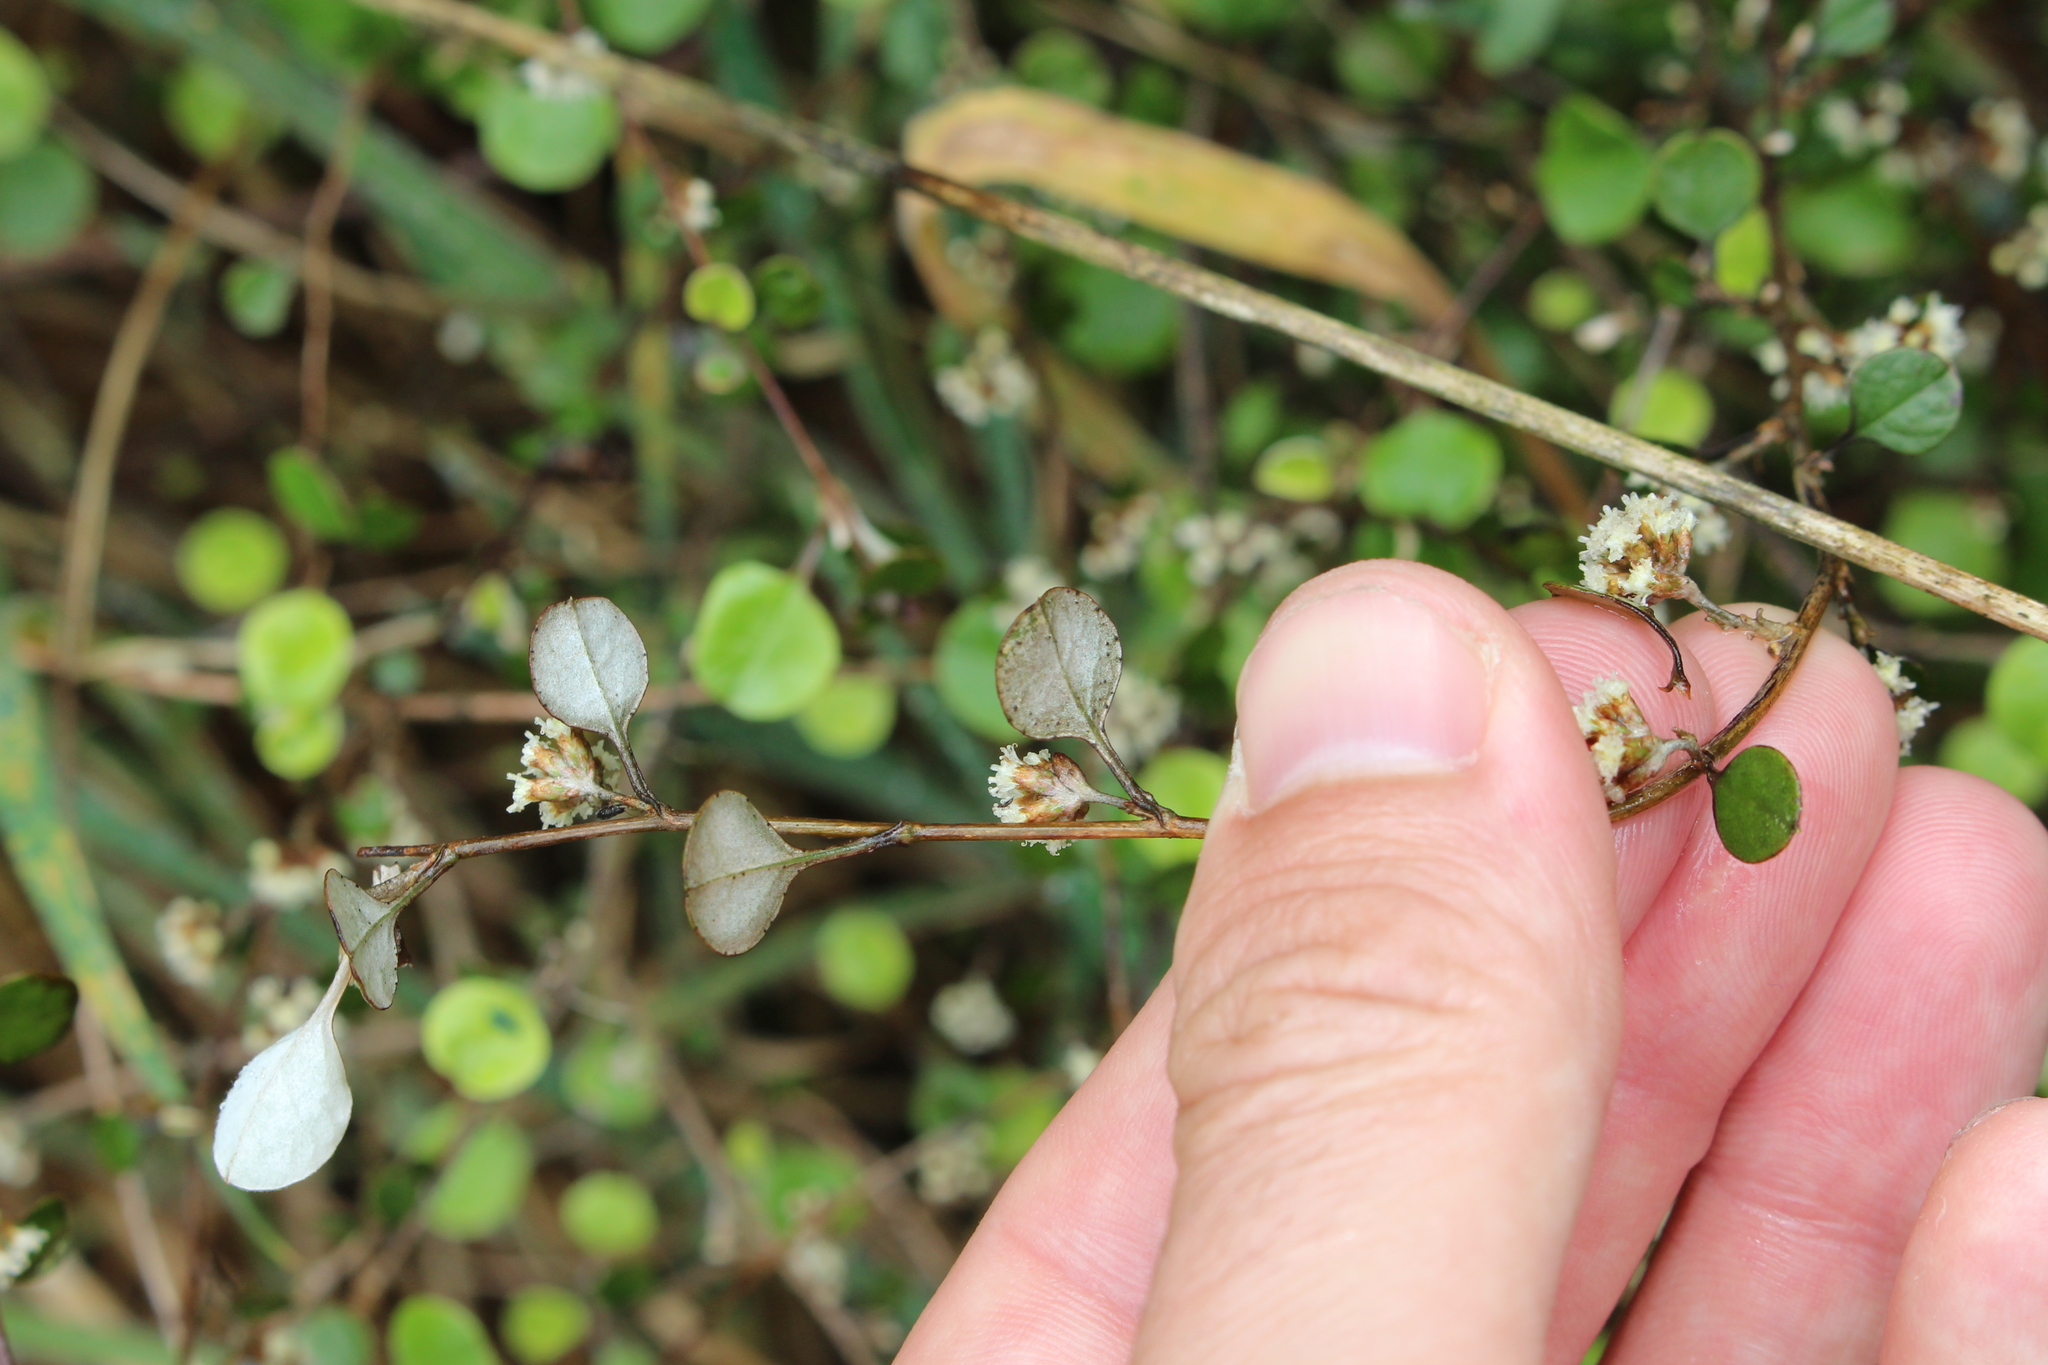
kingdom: Plantae
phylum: Tracheophyta
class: Magnoliopsida
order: Asterales
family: Asteraceae
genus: Ozothamnus
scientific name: Ozothamnus glomeratus
